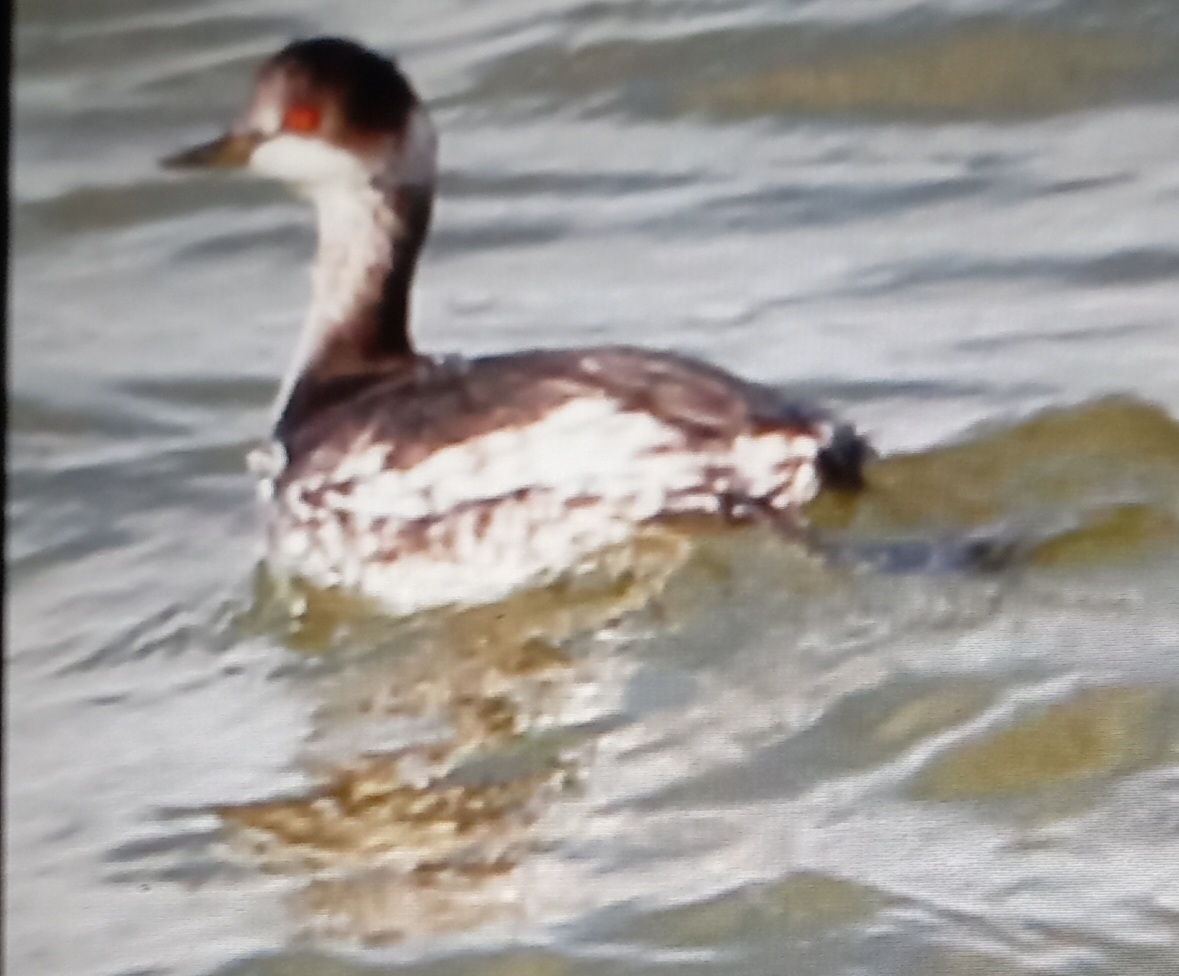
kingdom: Animalia
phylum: Chordata
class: Aves
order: Podicipediformes
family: Podicipedidae
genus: Podiceps
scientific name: Podiceps nigricollis
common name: Black-necked grebe
